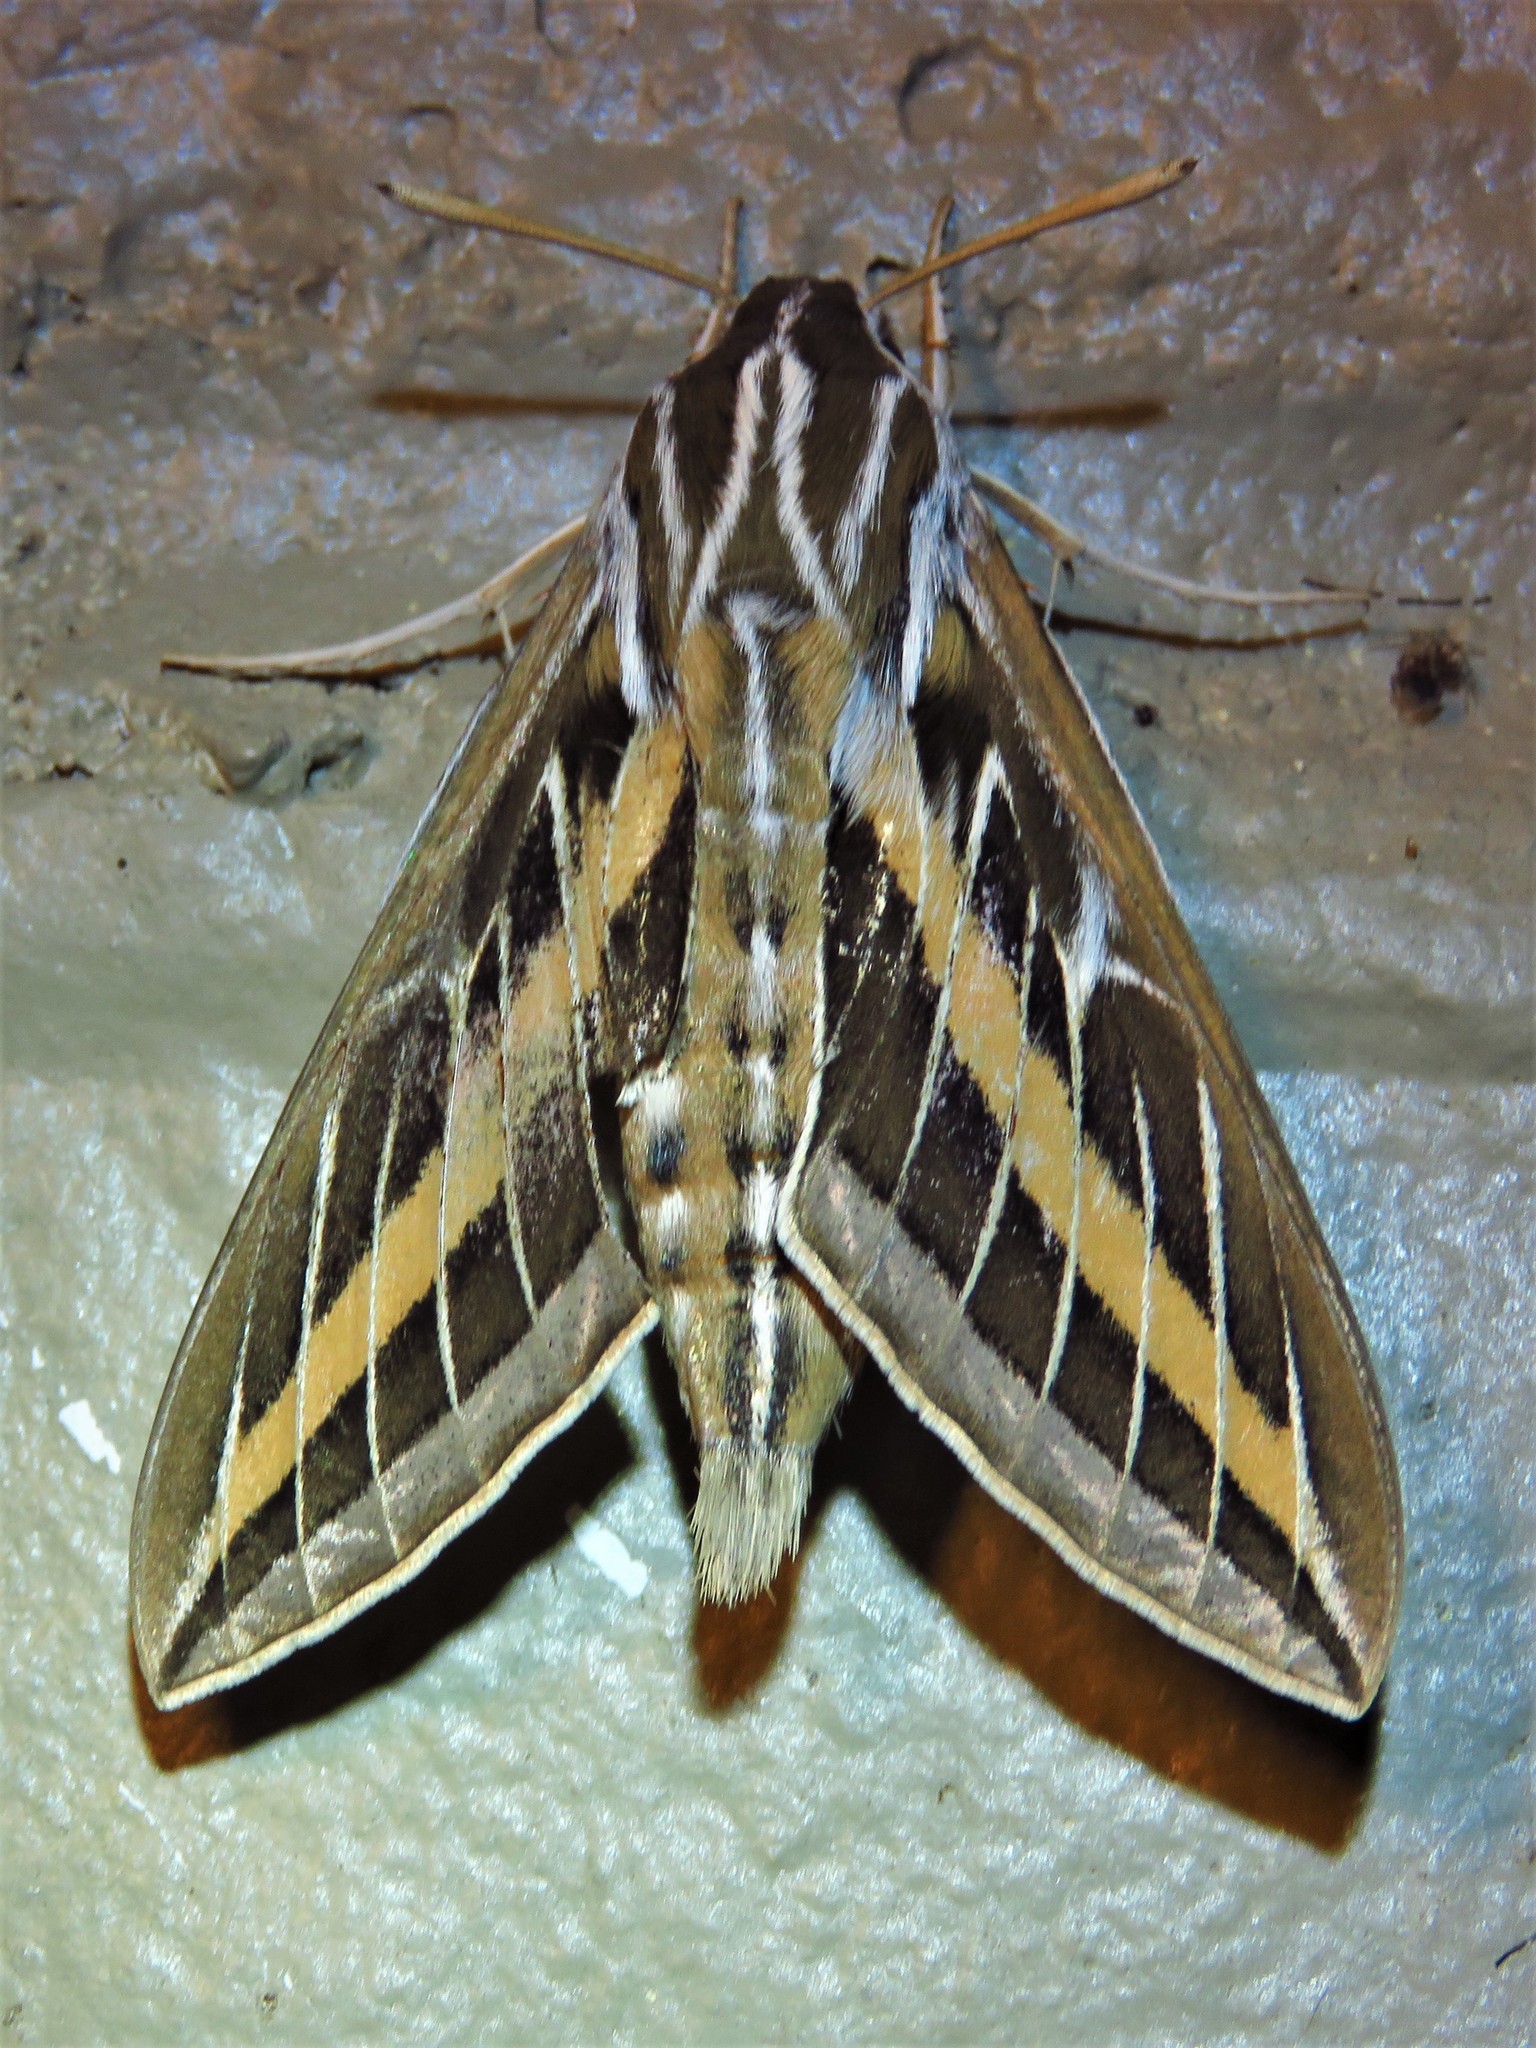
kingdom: Animalia
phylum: Arthropoda
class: Insecta
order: Lepidoptera
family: Sphingidae
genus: Hyles
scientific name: Hyles lineata
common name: White-lined sphinx
